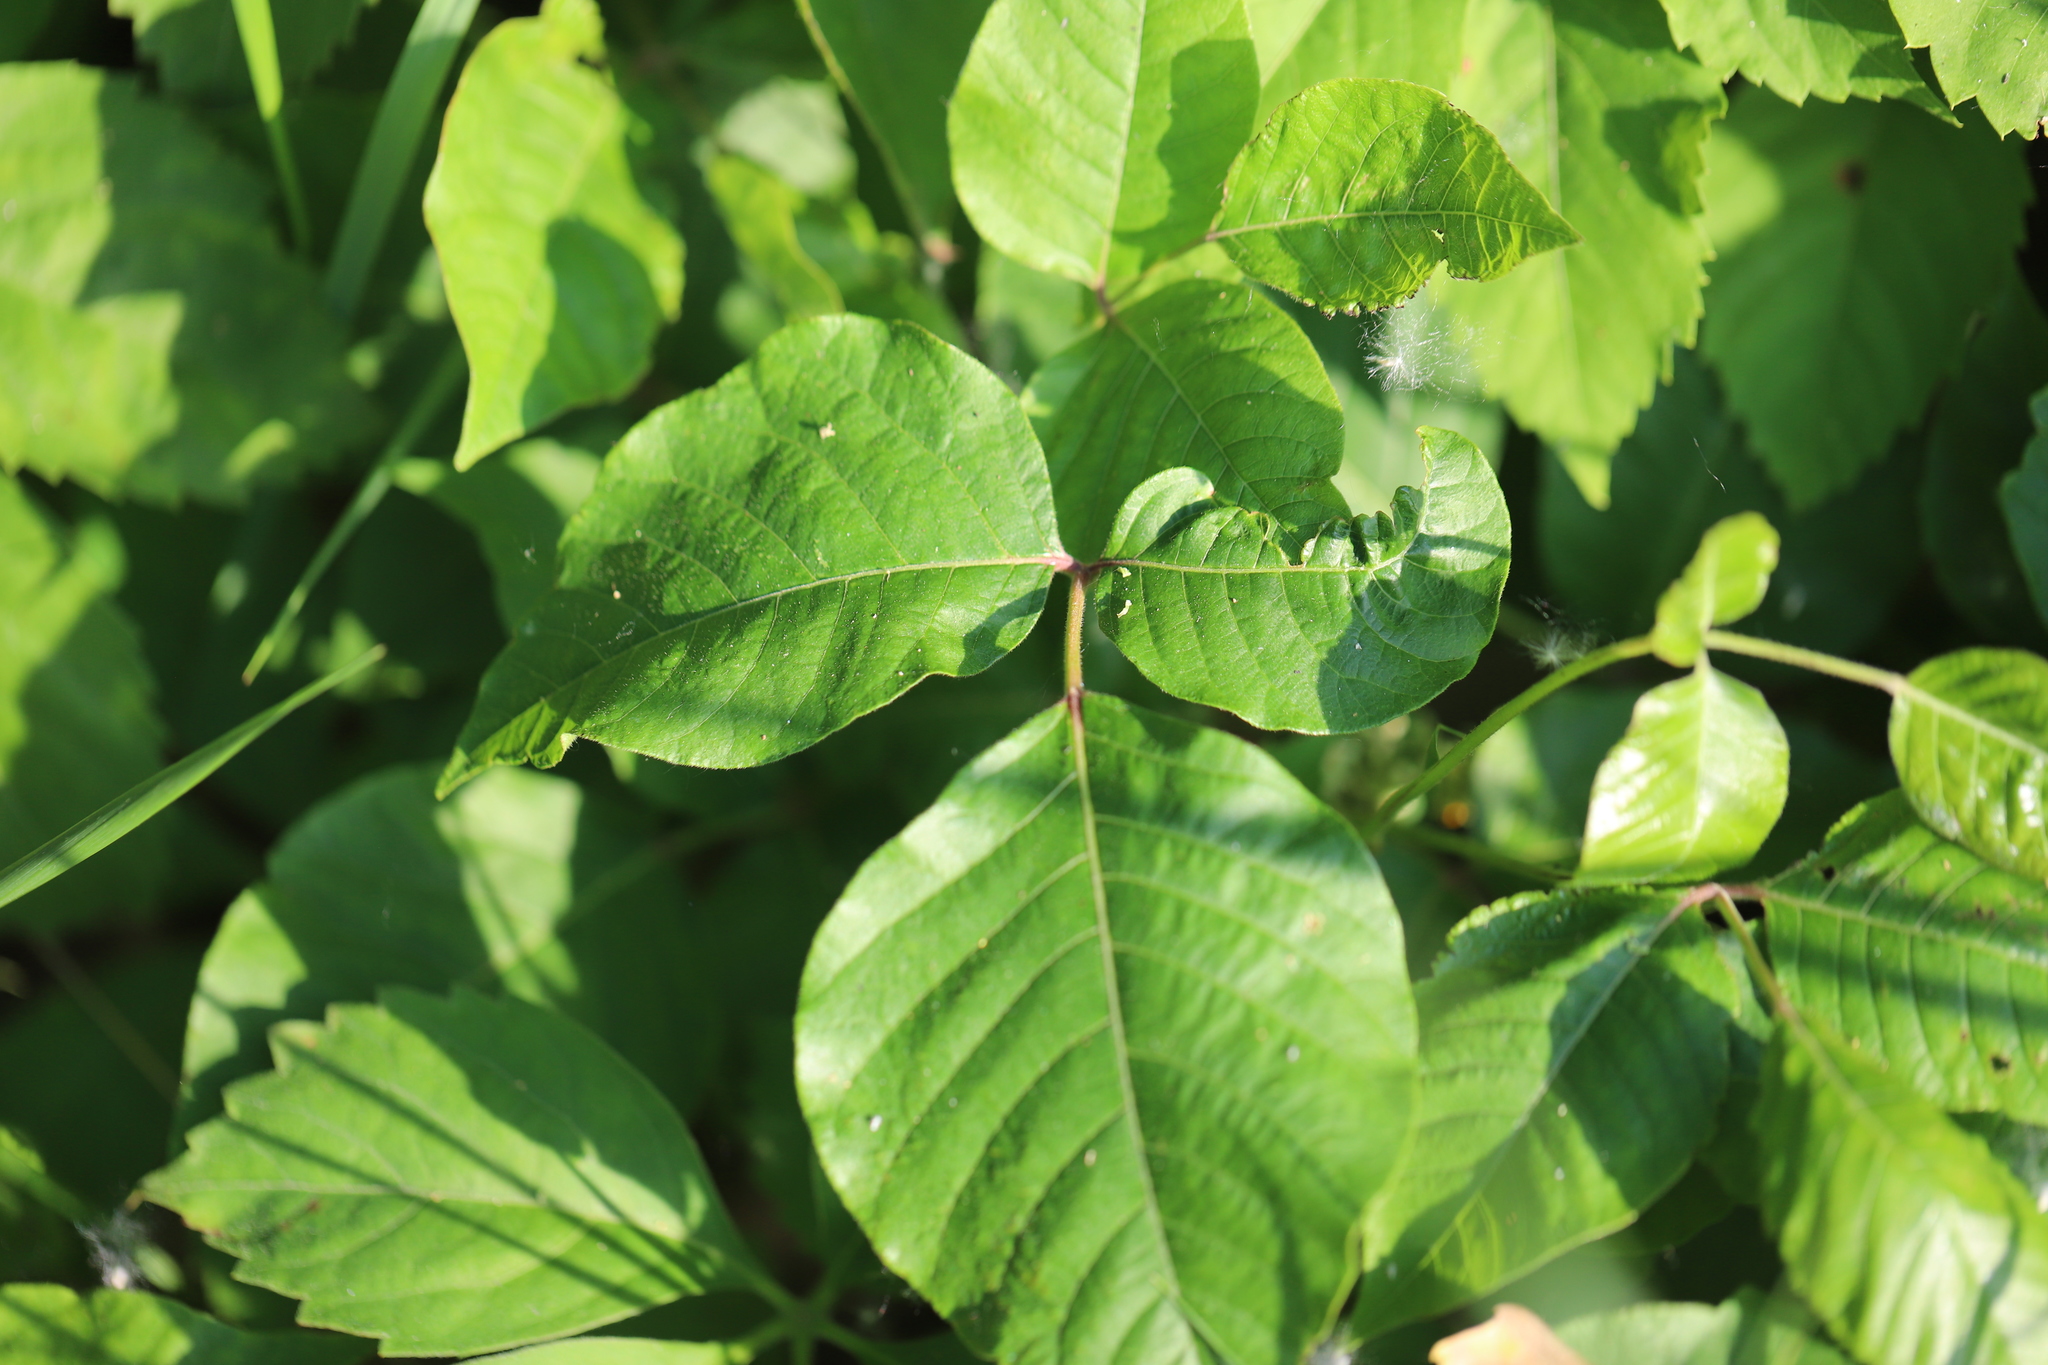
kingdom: Plantae
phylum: Tracheophyta
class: Magnoliopsida
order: Sapindales
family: Anacardiaceae
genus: Toxicodendron
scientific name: Toxicodendron radicans
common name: Poison ivy
